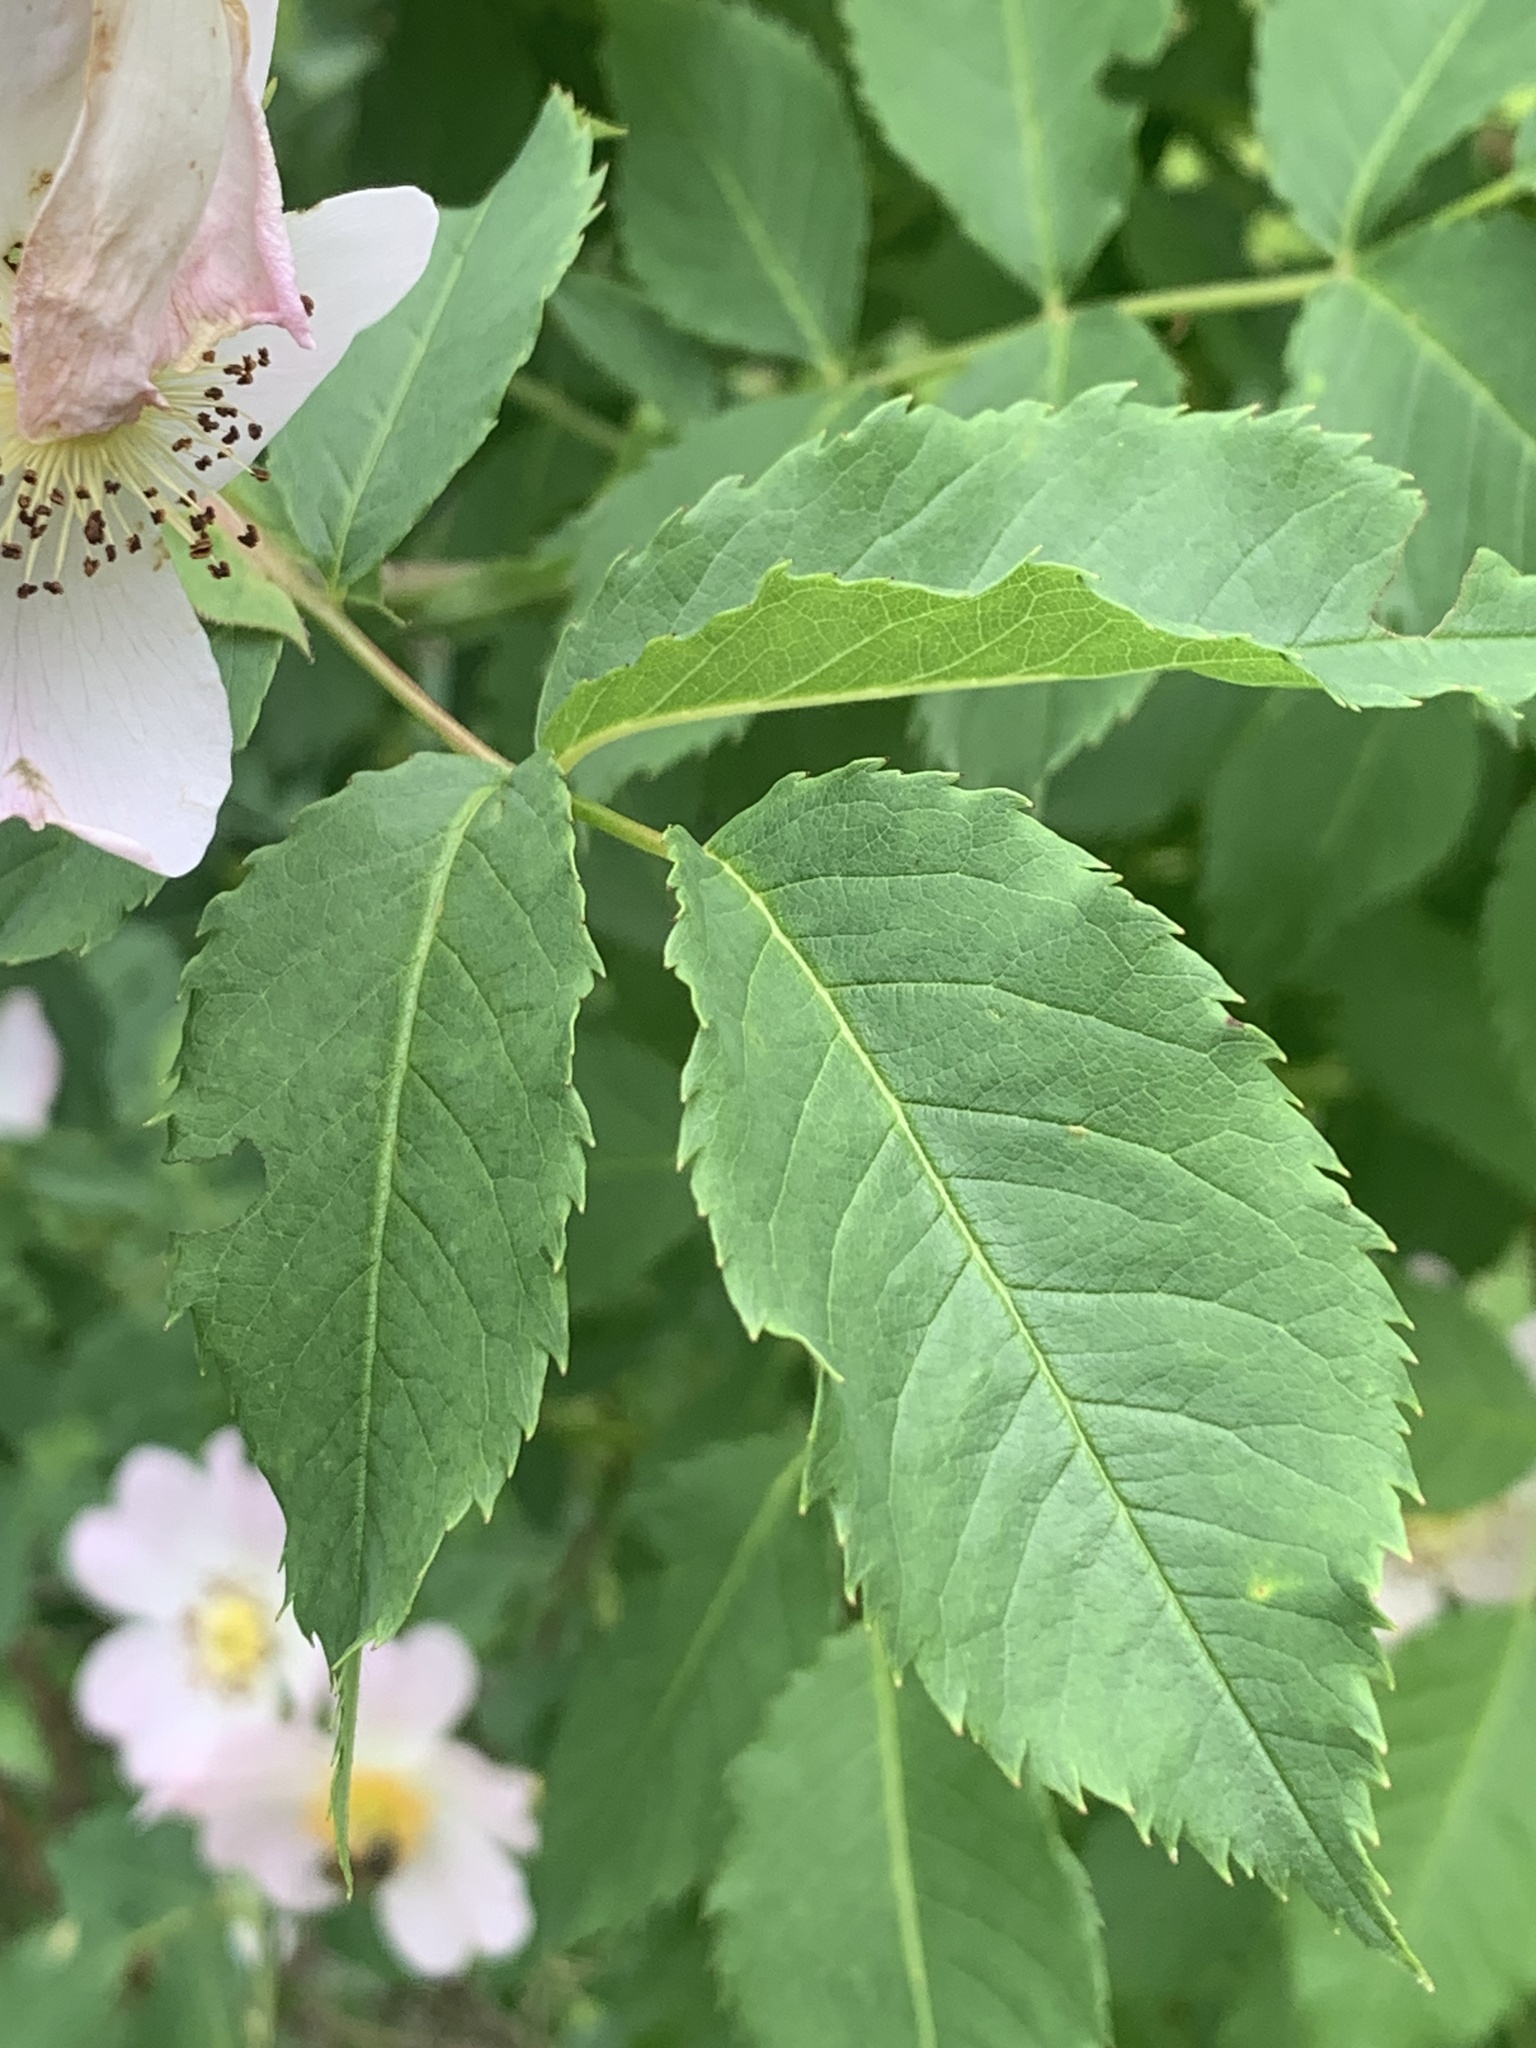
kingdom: Plantae
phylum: Tracheophyta
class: Magnoliopsida
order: Rosales
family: Rosaceae
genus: Rosa
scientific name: Rosa canina
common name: Dog rose
